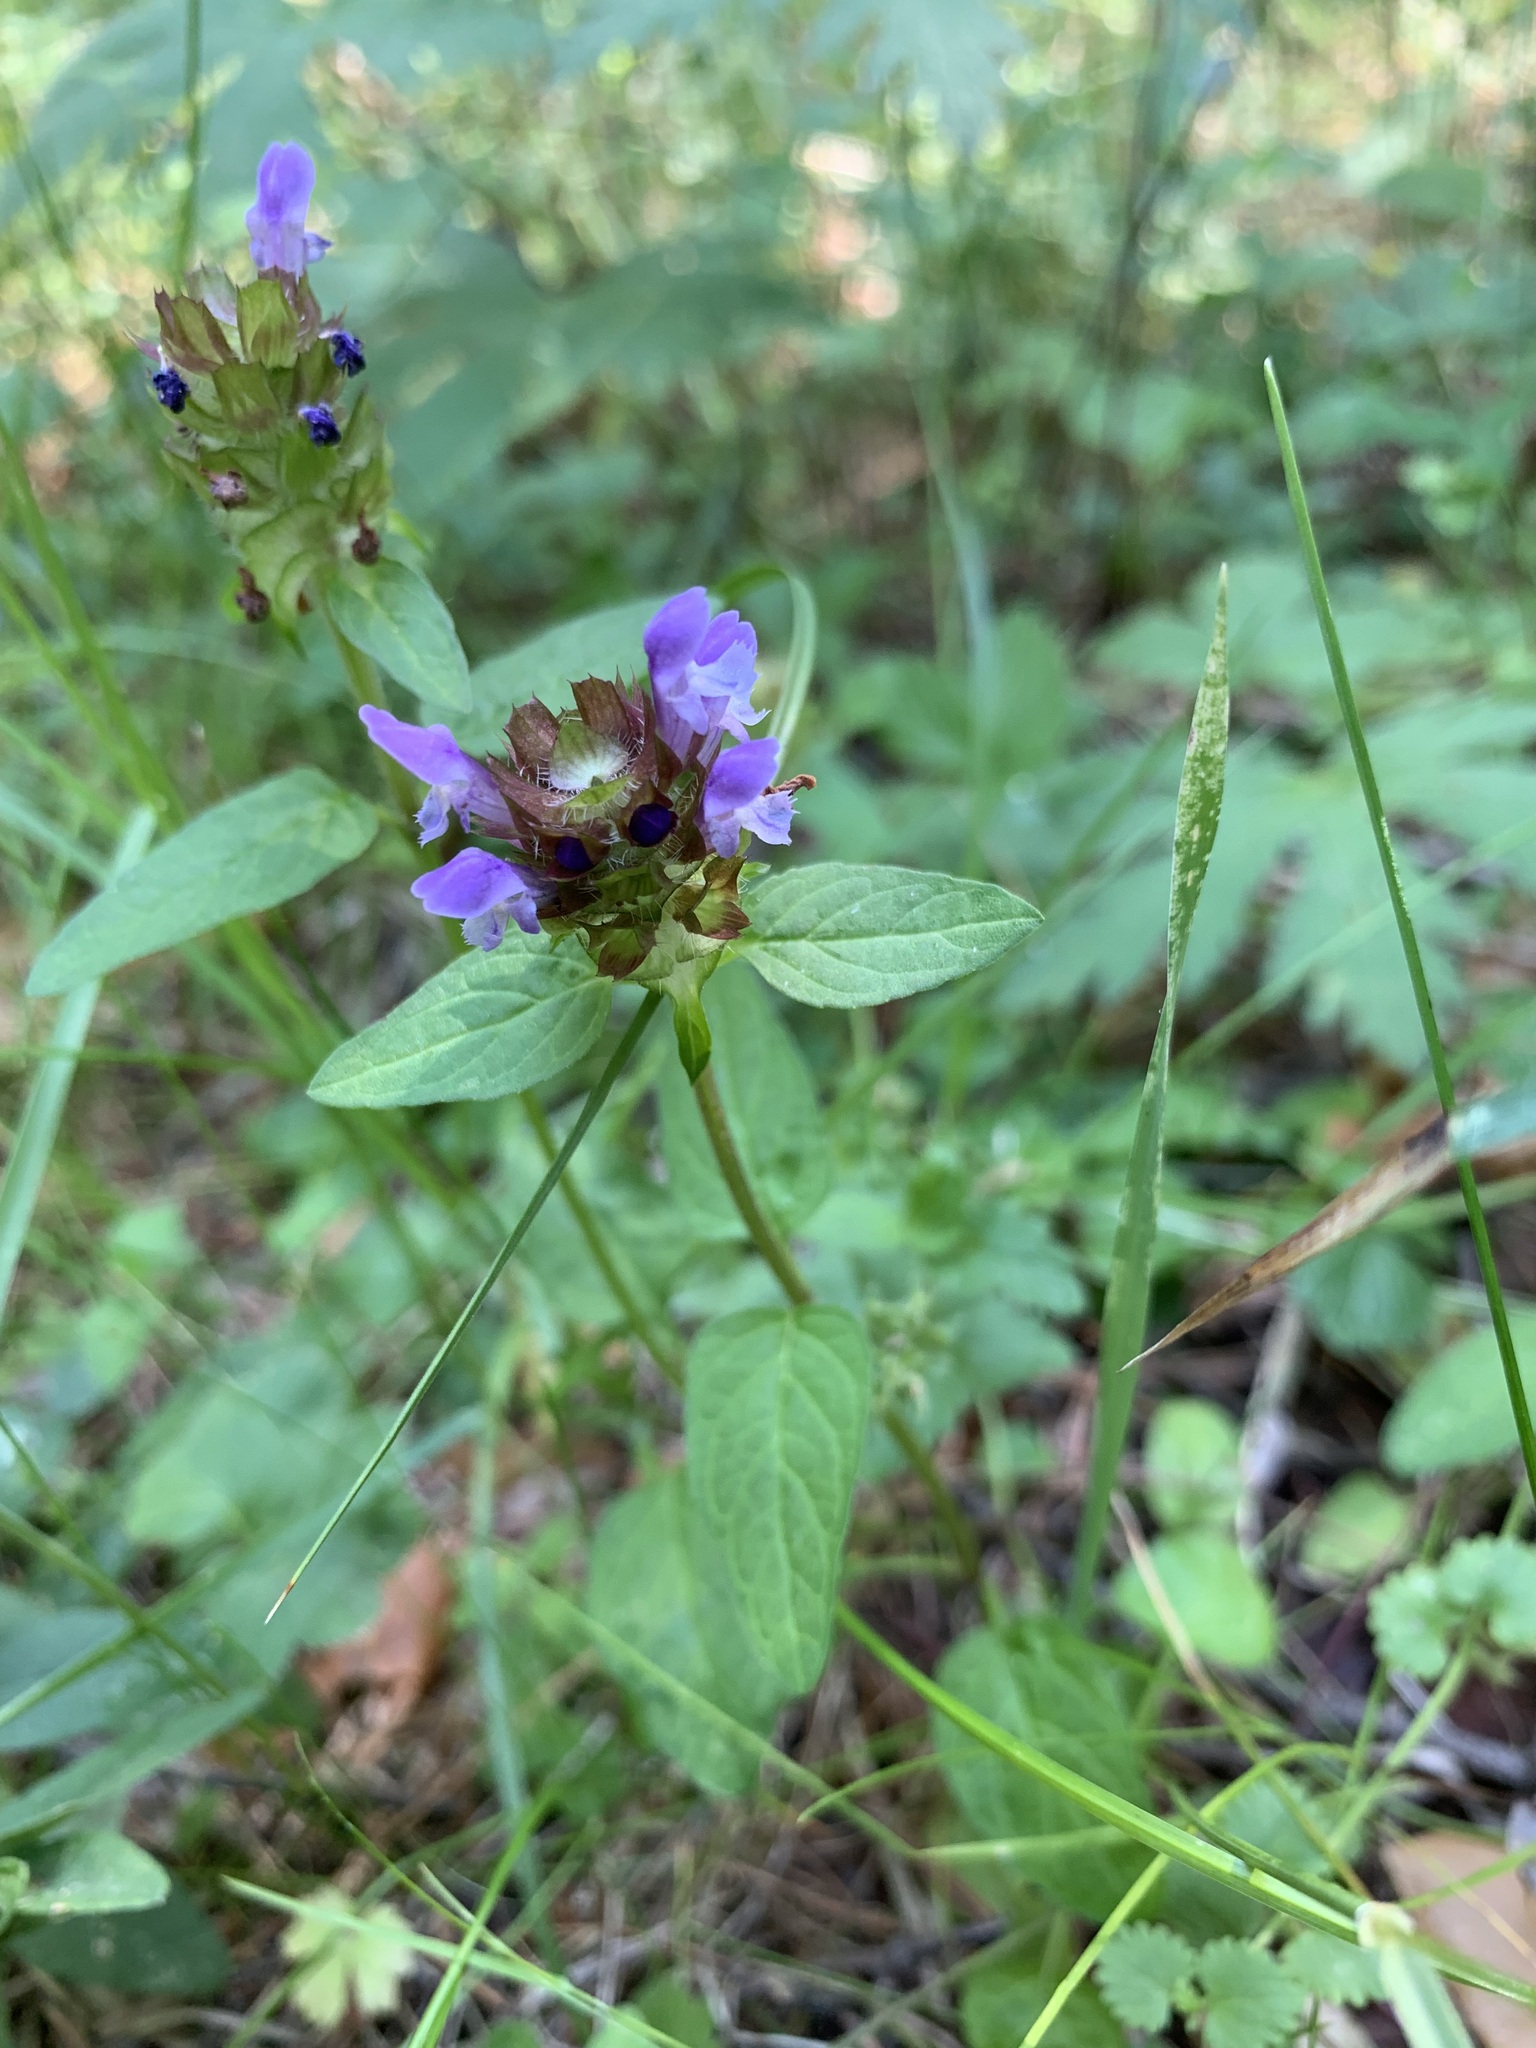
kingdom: Plantae
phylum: Tracheophyta
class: Magnoliopsida
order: Lamiales
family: Lamiaceae
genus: Prunella
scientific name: Prunella vulgaris
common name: Heal-all
